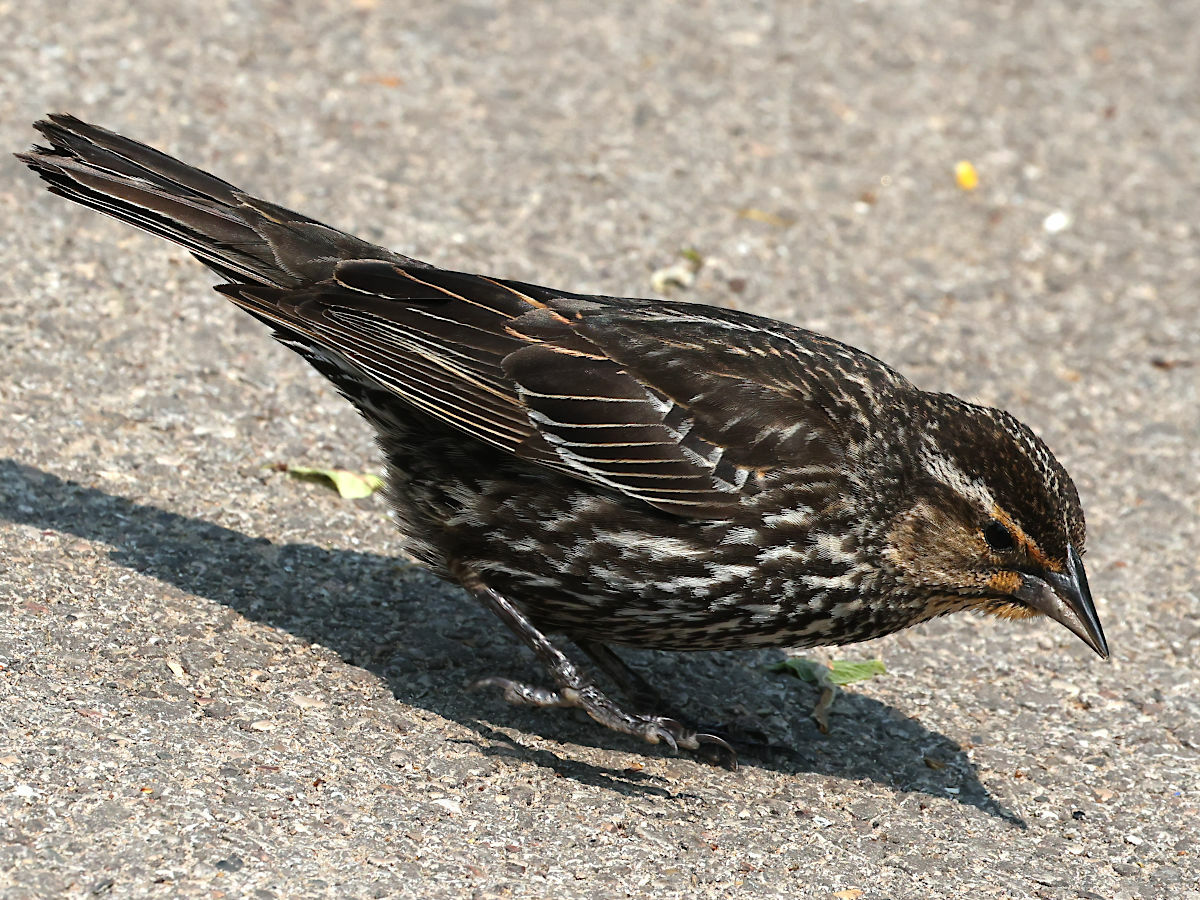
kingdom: Animalia
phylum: Chordata
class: Aves
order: Passeriformes
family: Icteridae
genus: Agelaius
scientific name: Agelaius phoeniceus
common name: Red-winged blackbird
